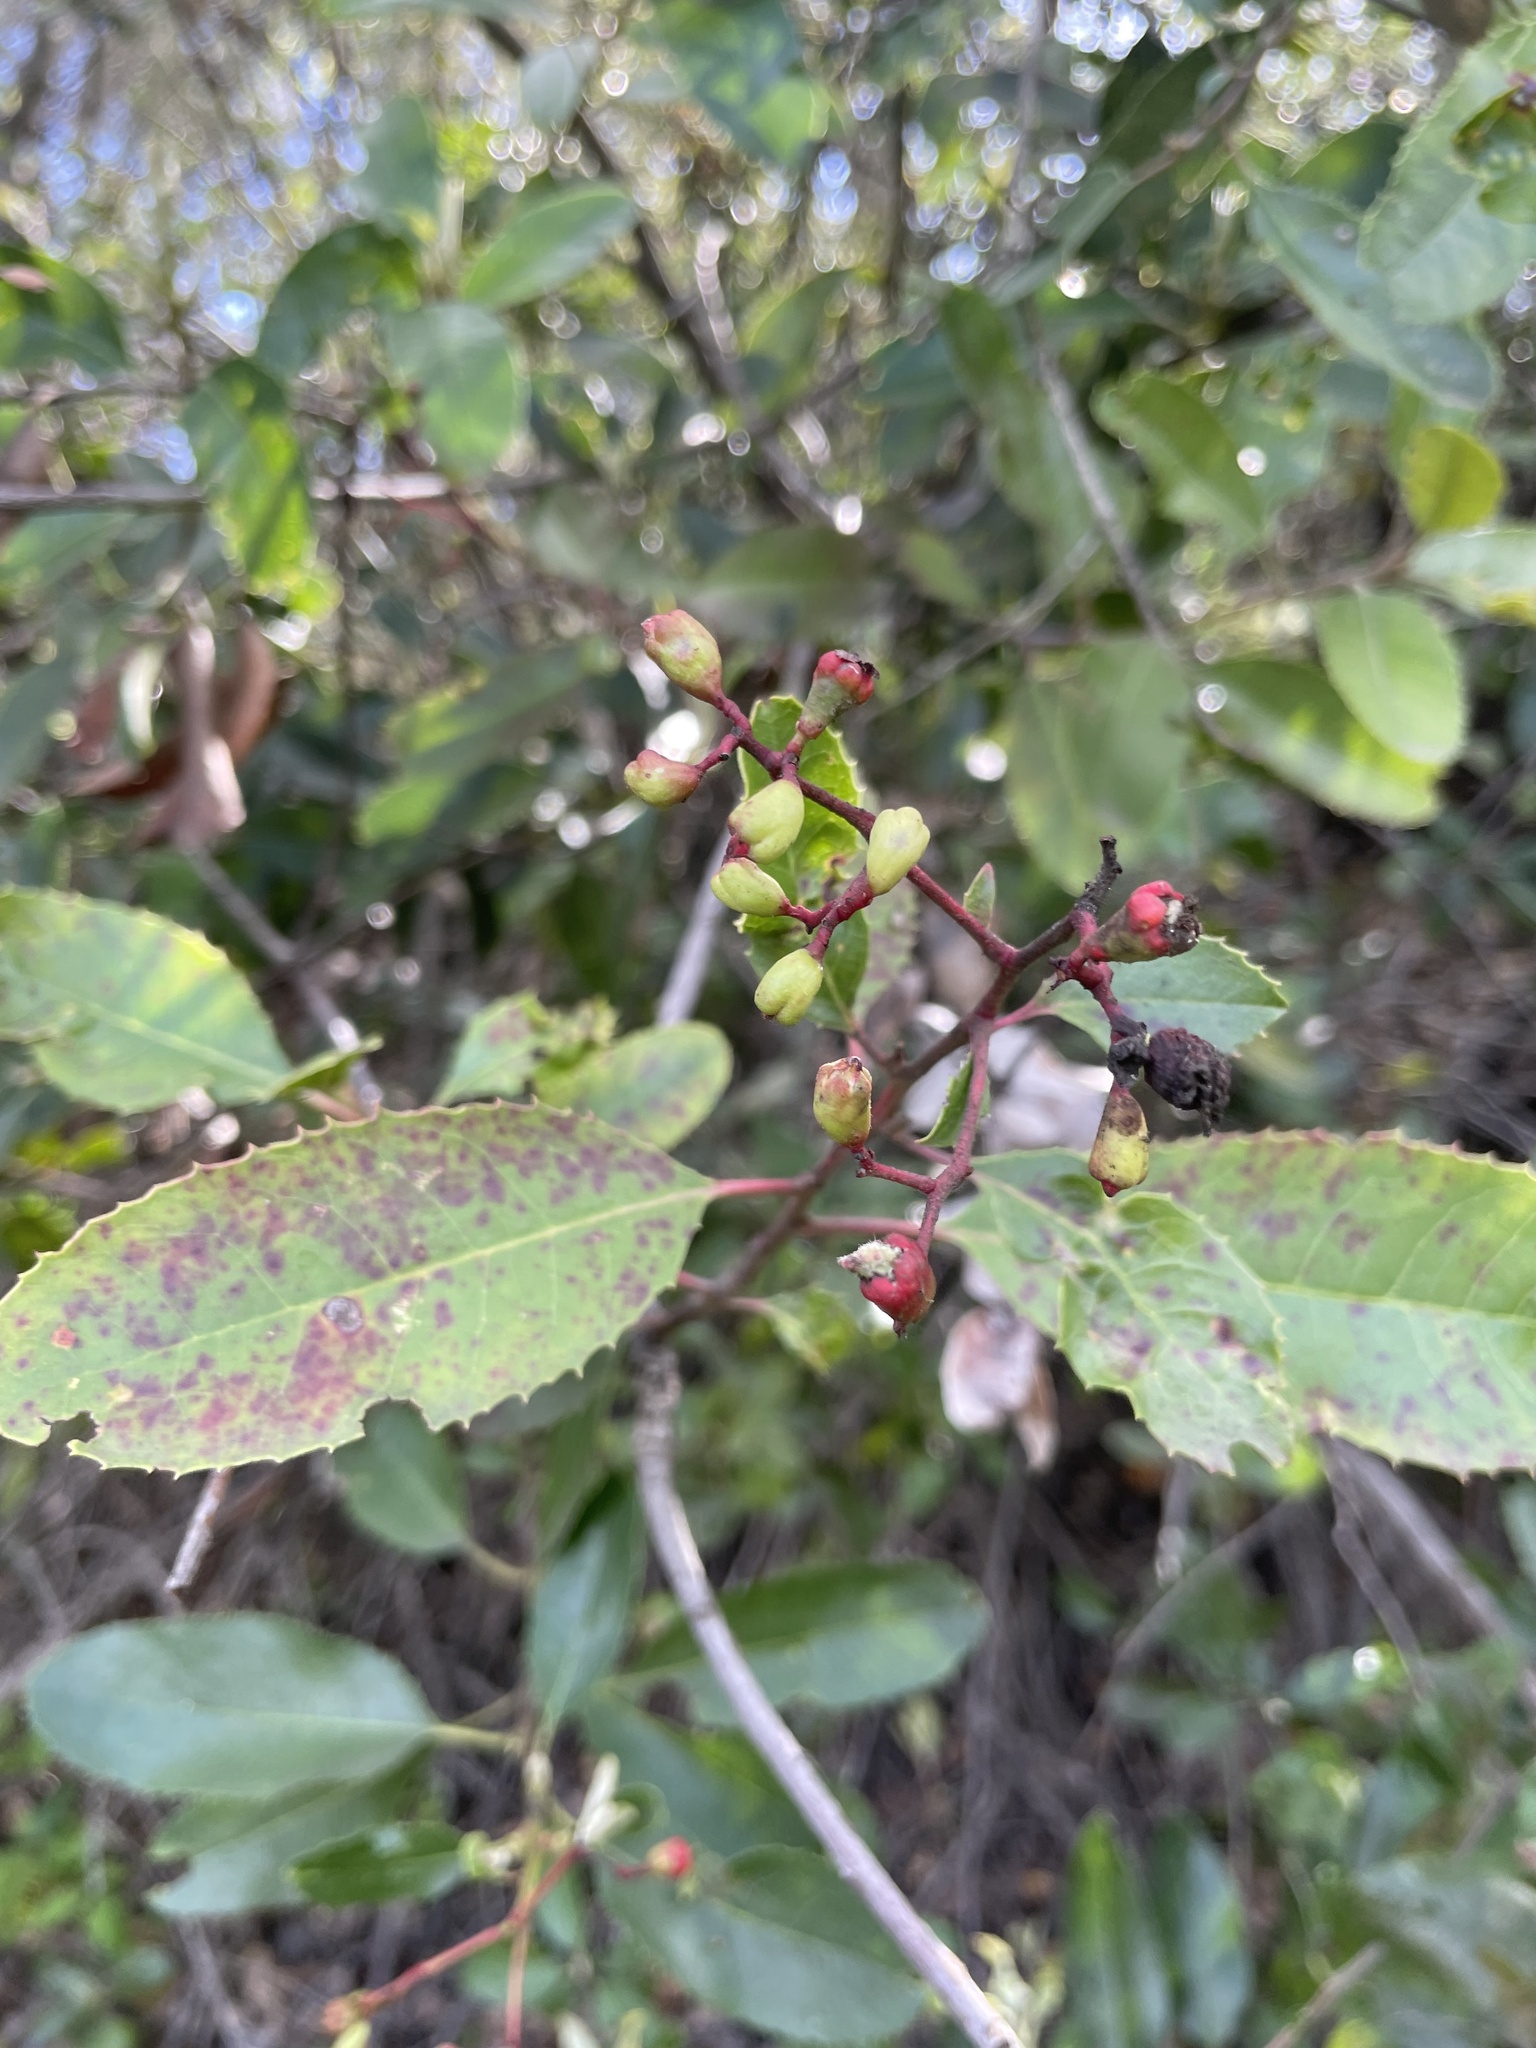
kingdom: Plantae
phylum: Tracheophyta
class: Magnoliopsida
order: Rosales
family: Rosaceae
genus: Heteromeles
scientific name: Heteromeles arbutifolia
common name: California-holly
